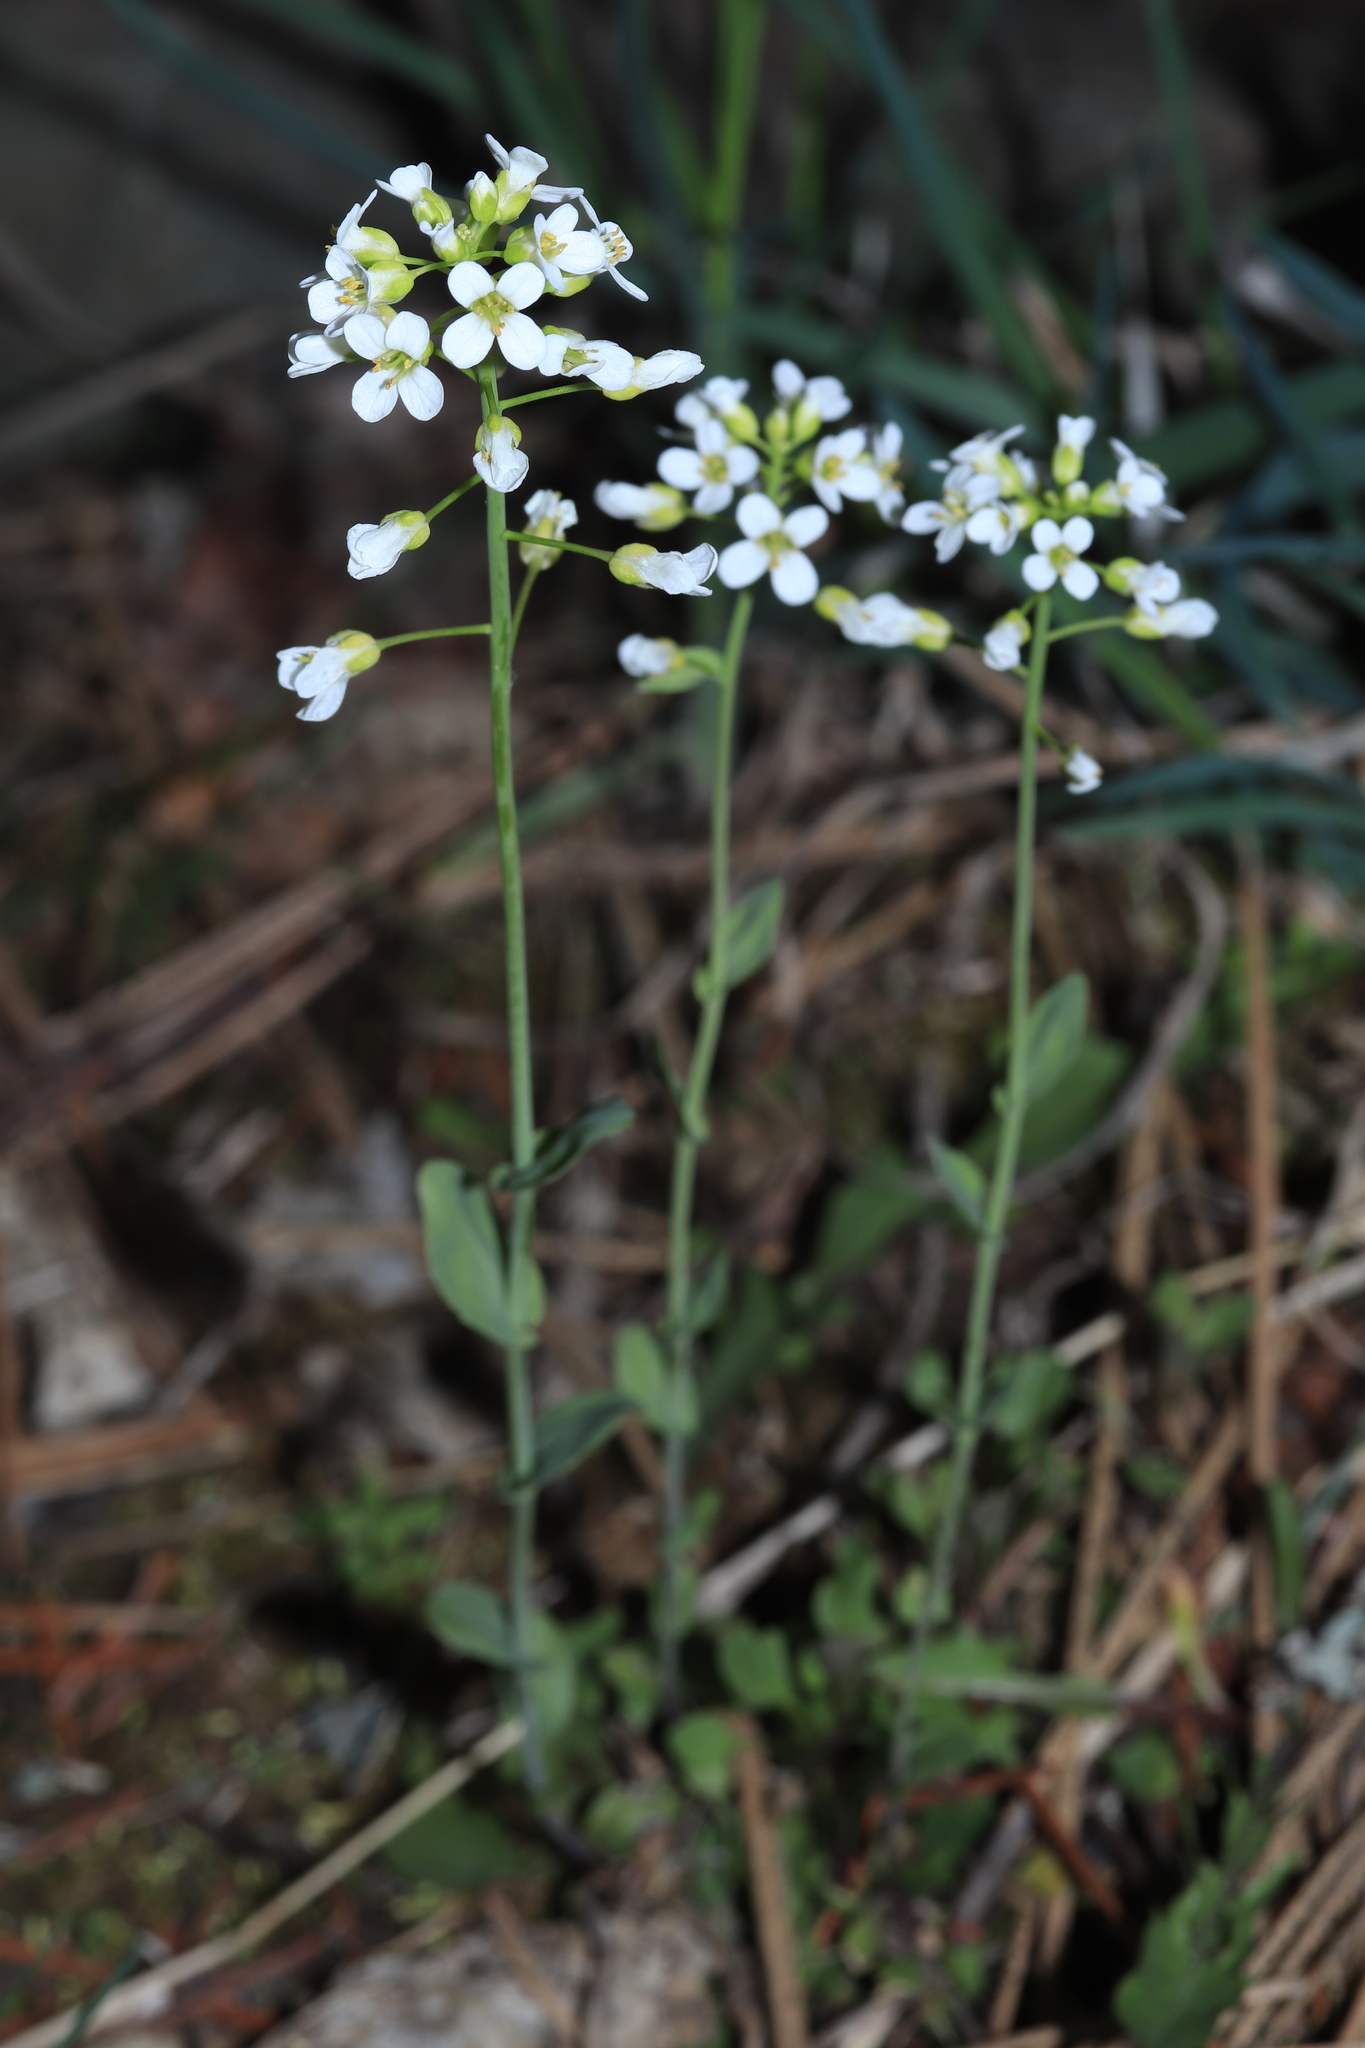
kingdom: Plantae
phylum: Tracheophyta
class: Magnoliopsida
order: Brassicales
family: Brassicaceae
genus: Noccaea
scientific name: Noccaea fendleri
